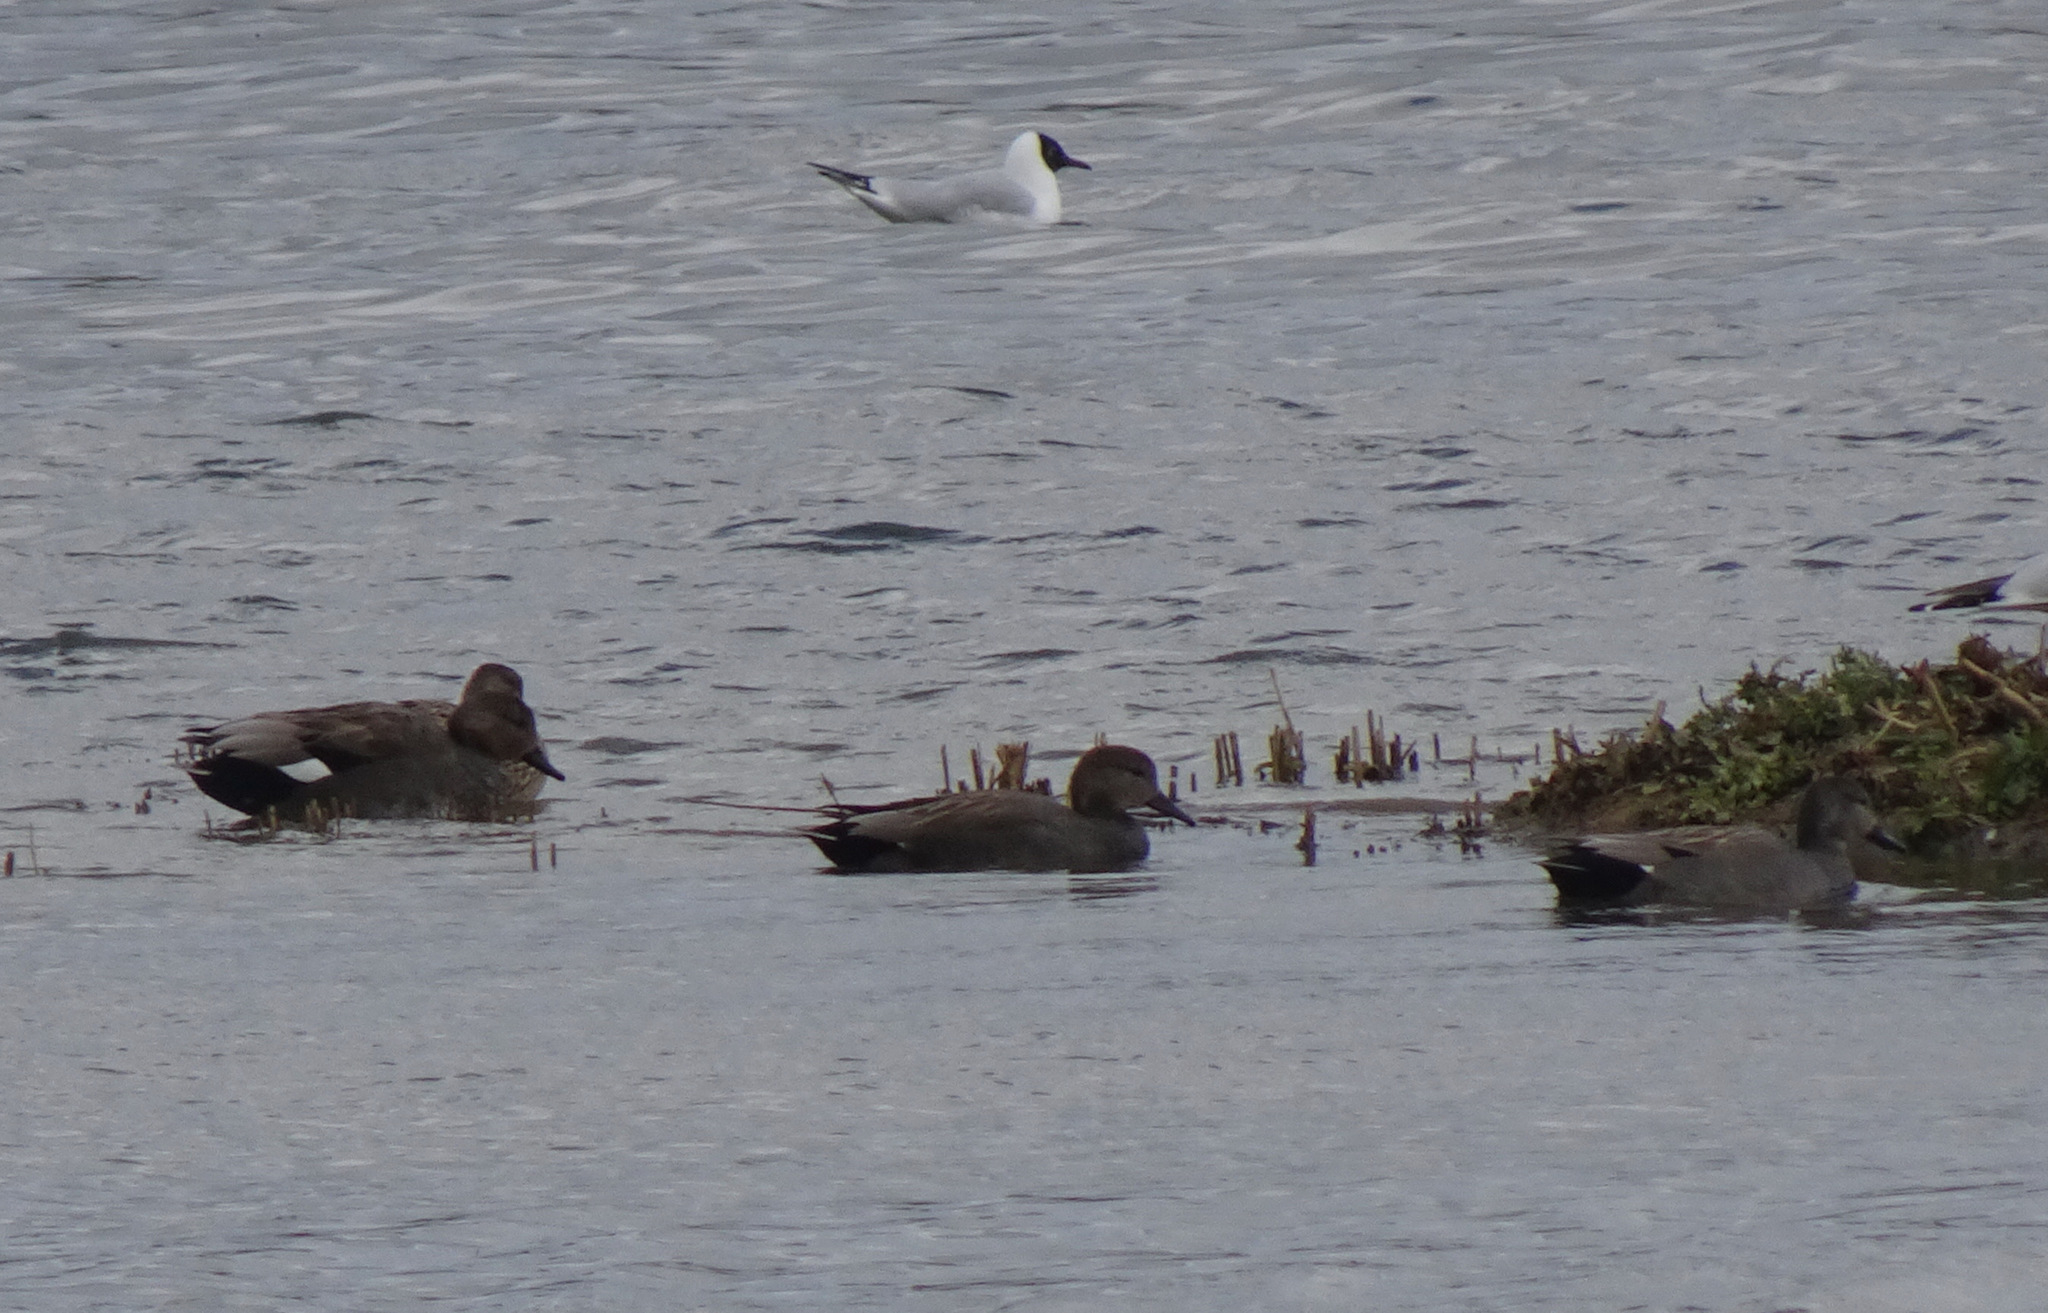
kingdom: Animalia
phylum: Chordata
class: Aves
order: Anseriformes
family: Anatidae
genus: Mareca
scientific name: Mareca strepera
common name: Gadwall
